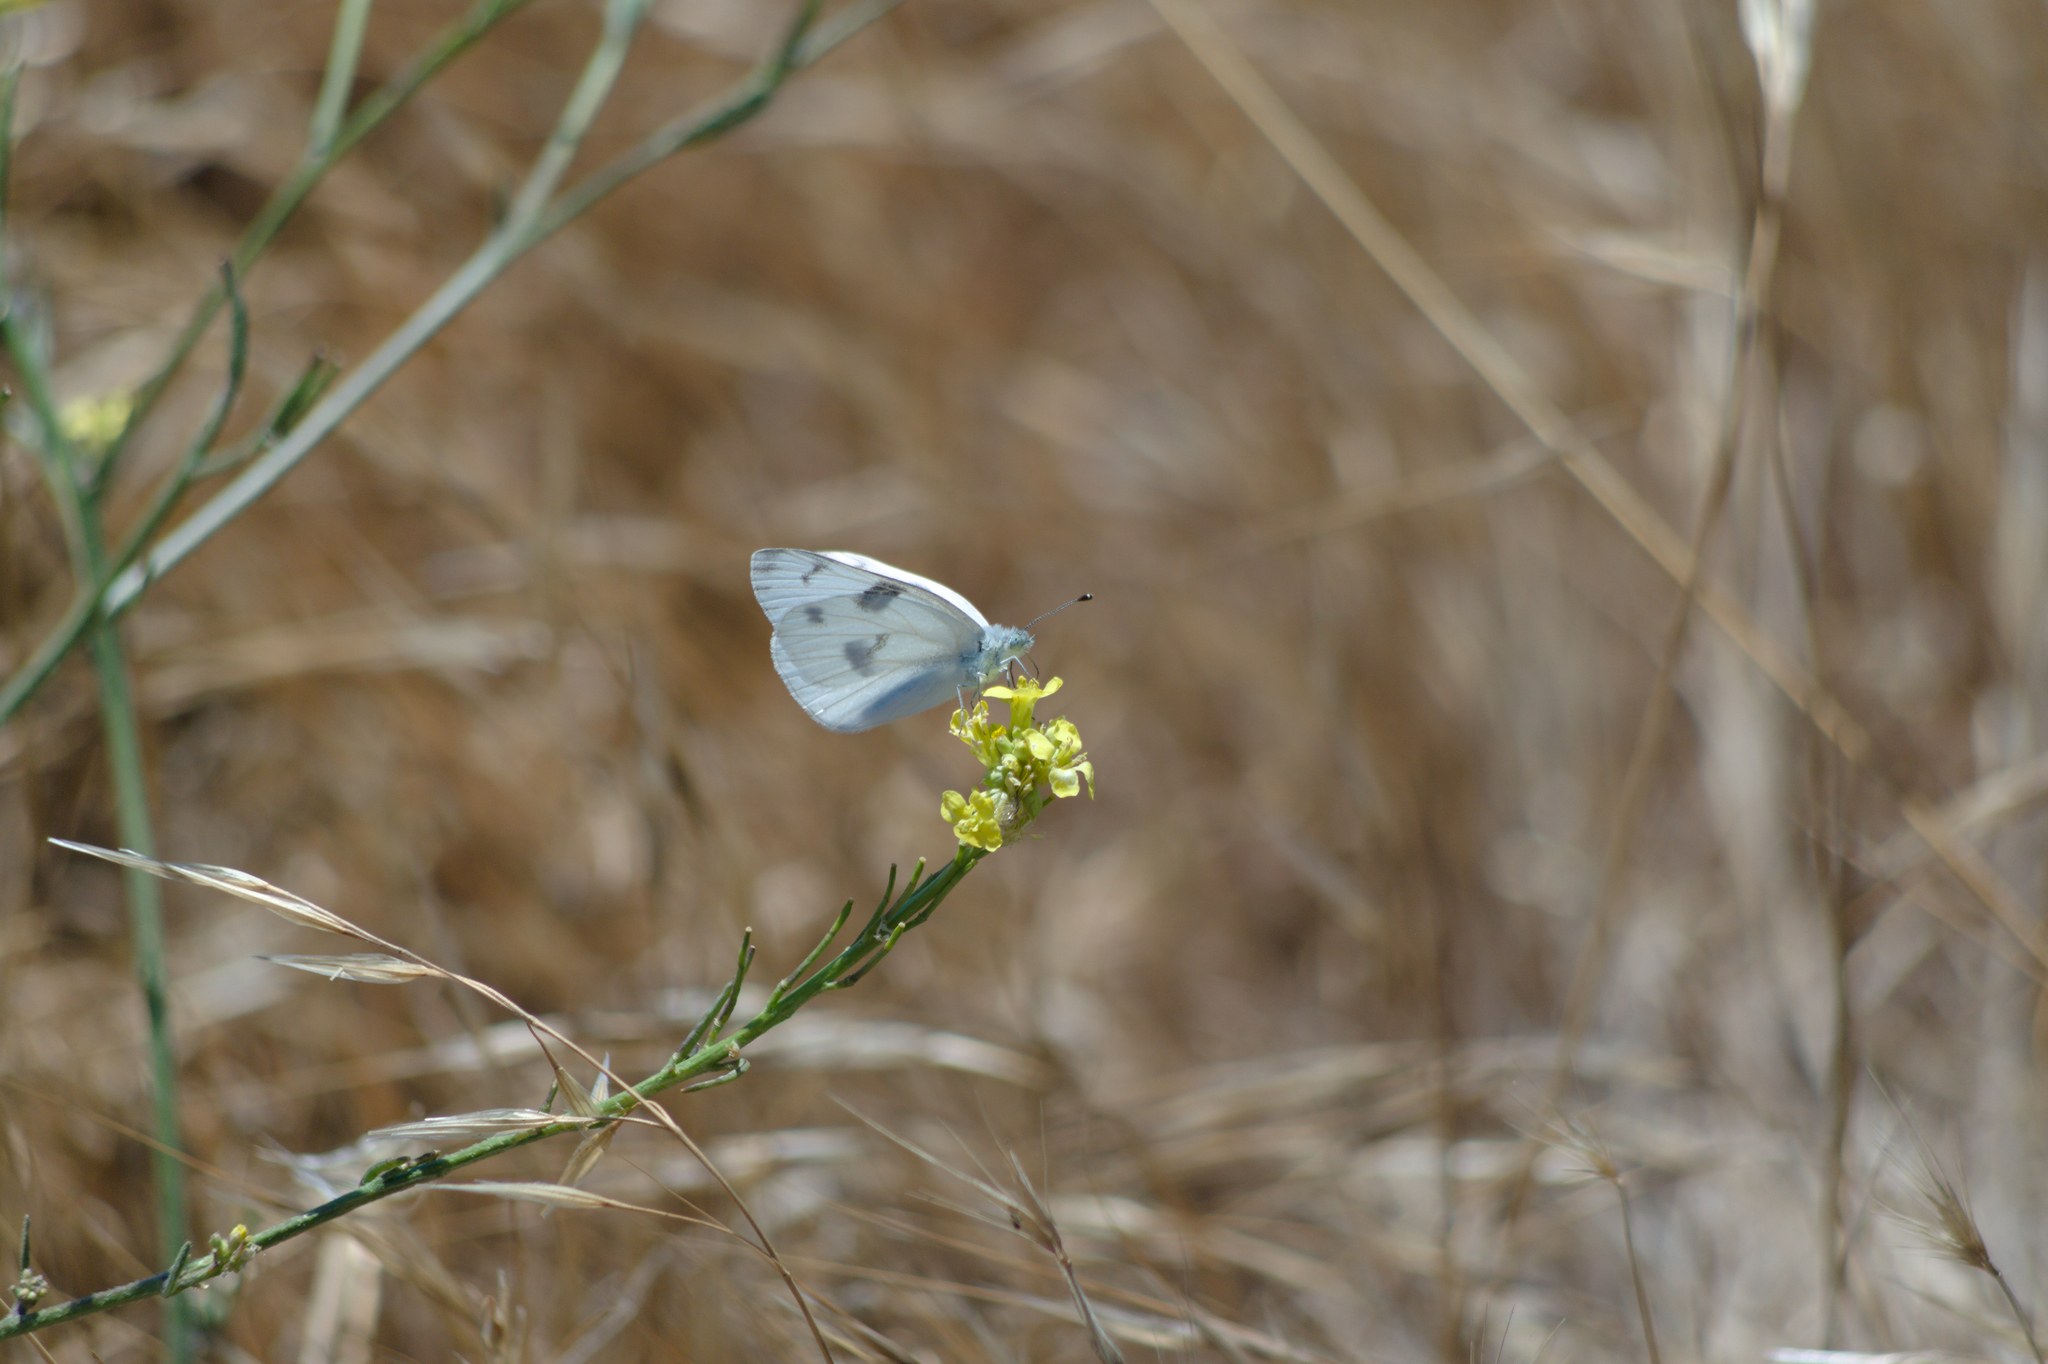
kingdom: Animalia
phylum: Arthropoda
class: Insecta
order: Lepidoptera
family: Pieridae
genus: Pontia
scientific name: Pontia protodice
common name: Checkered white
